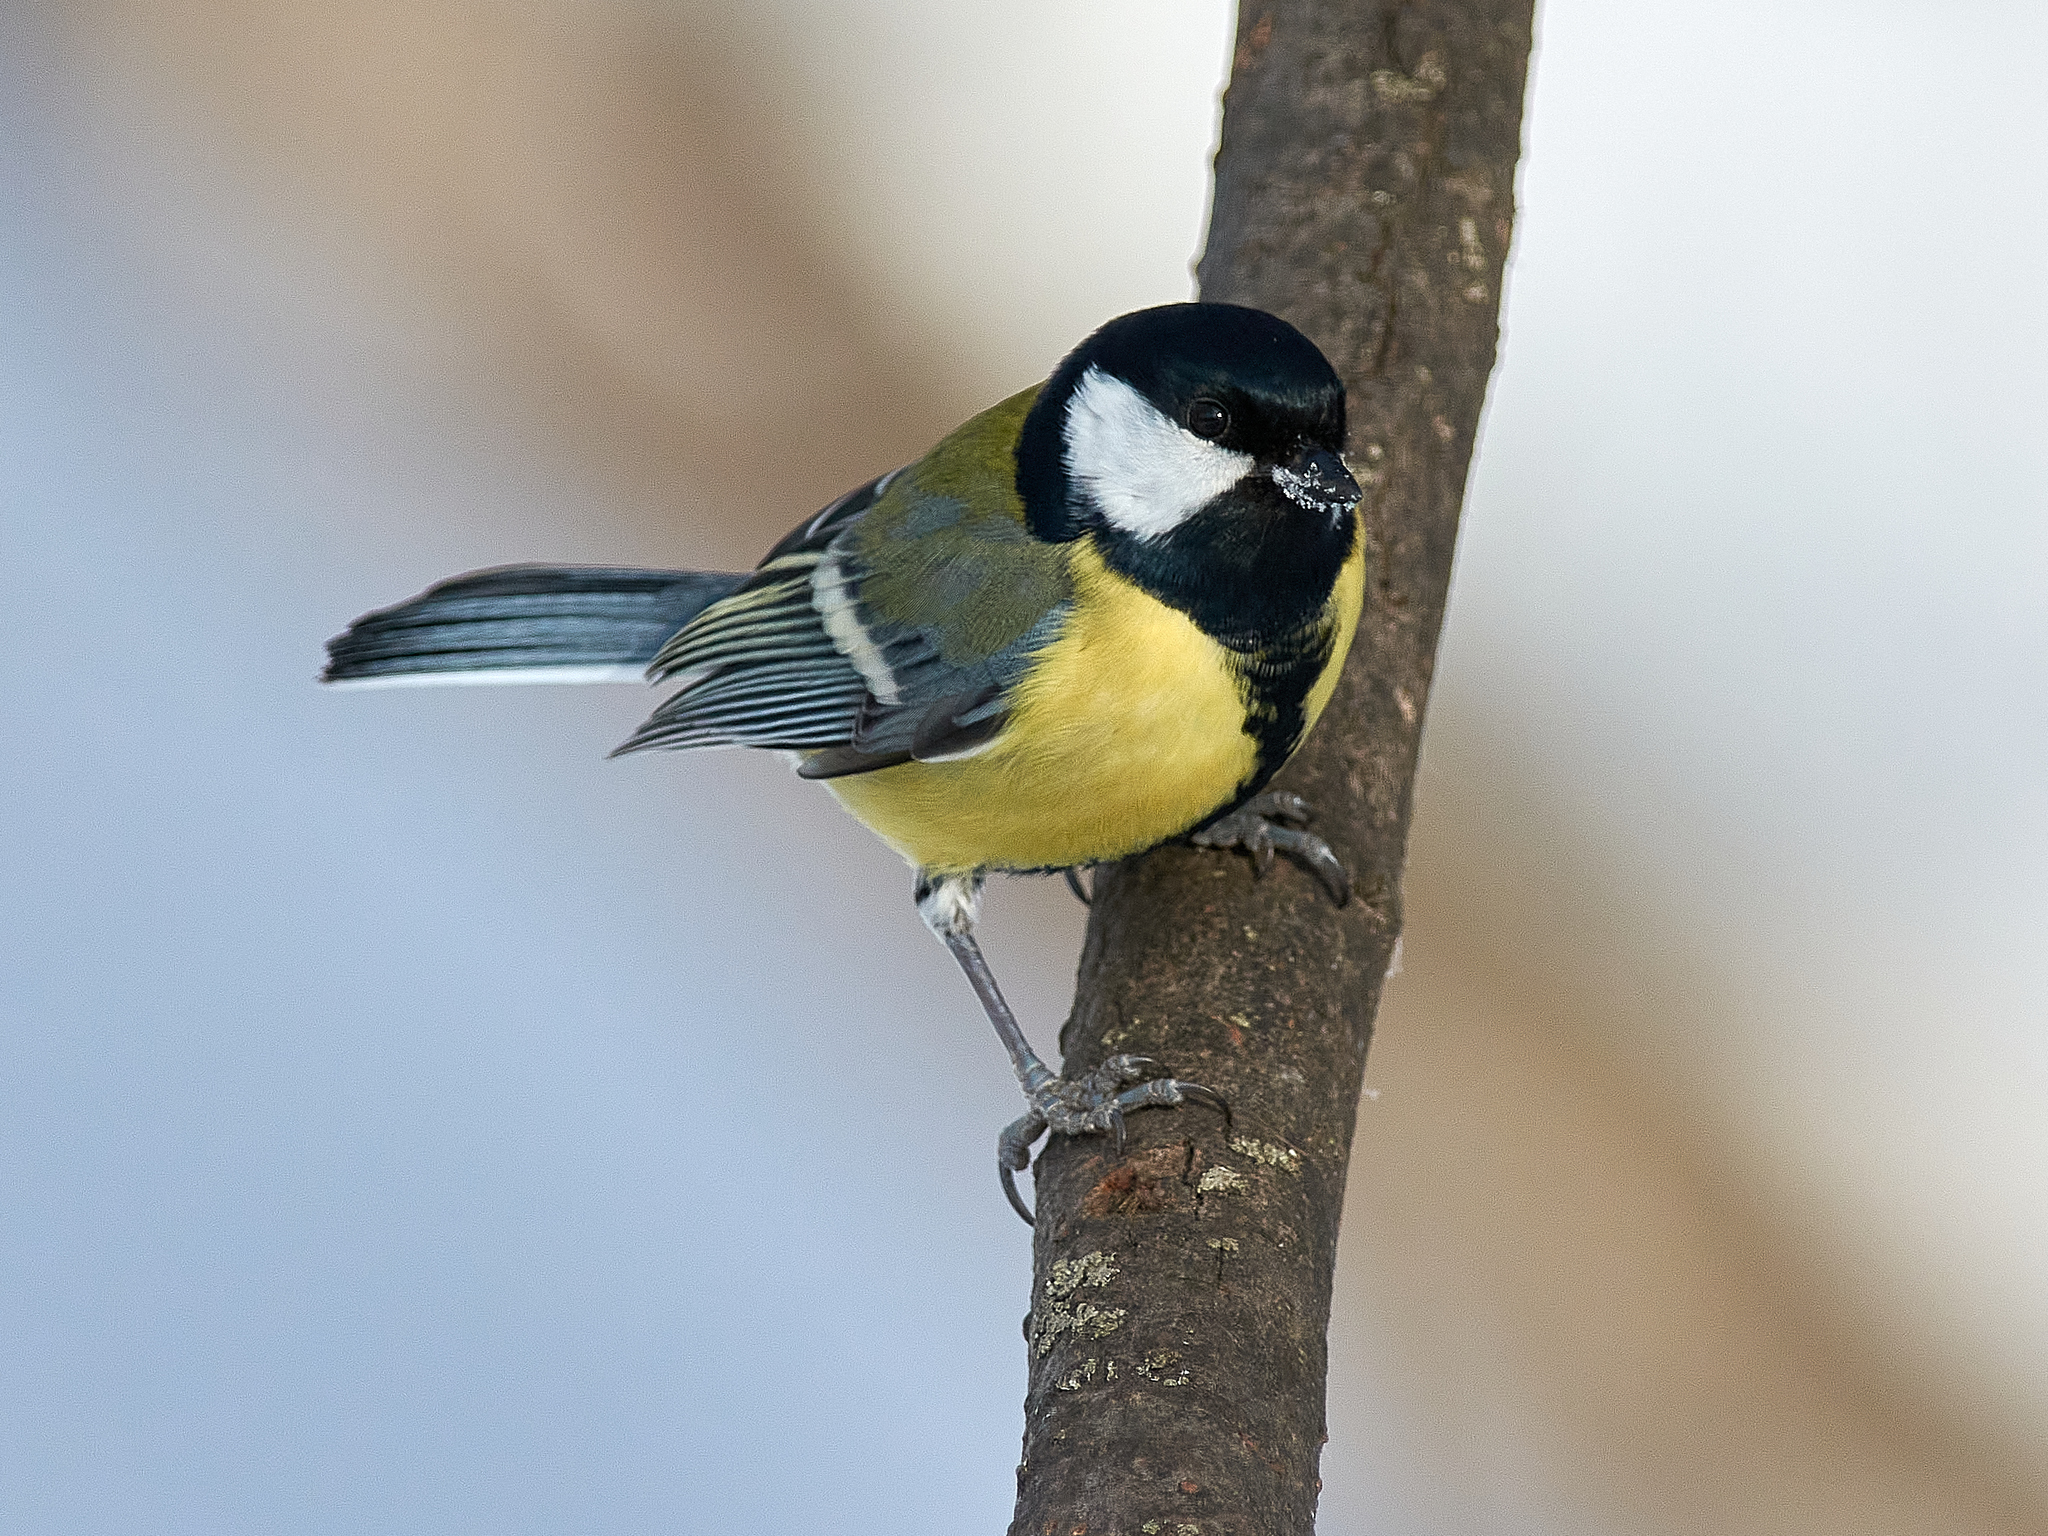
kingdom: Animalia
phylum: Chordata
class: Aves
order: Passeriformes
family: Paridae
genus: Parus
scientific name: Parus major
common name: Great tit
